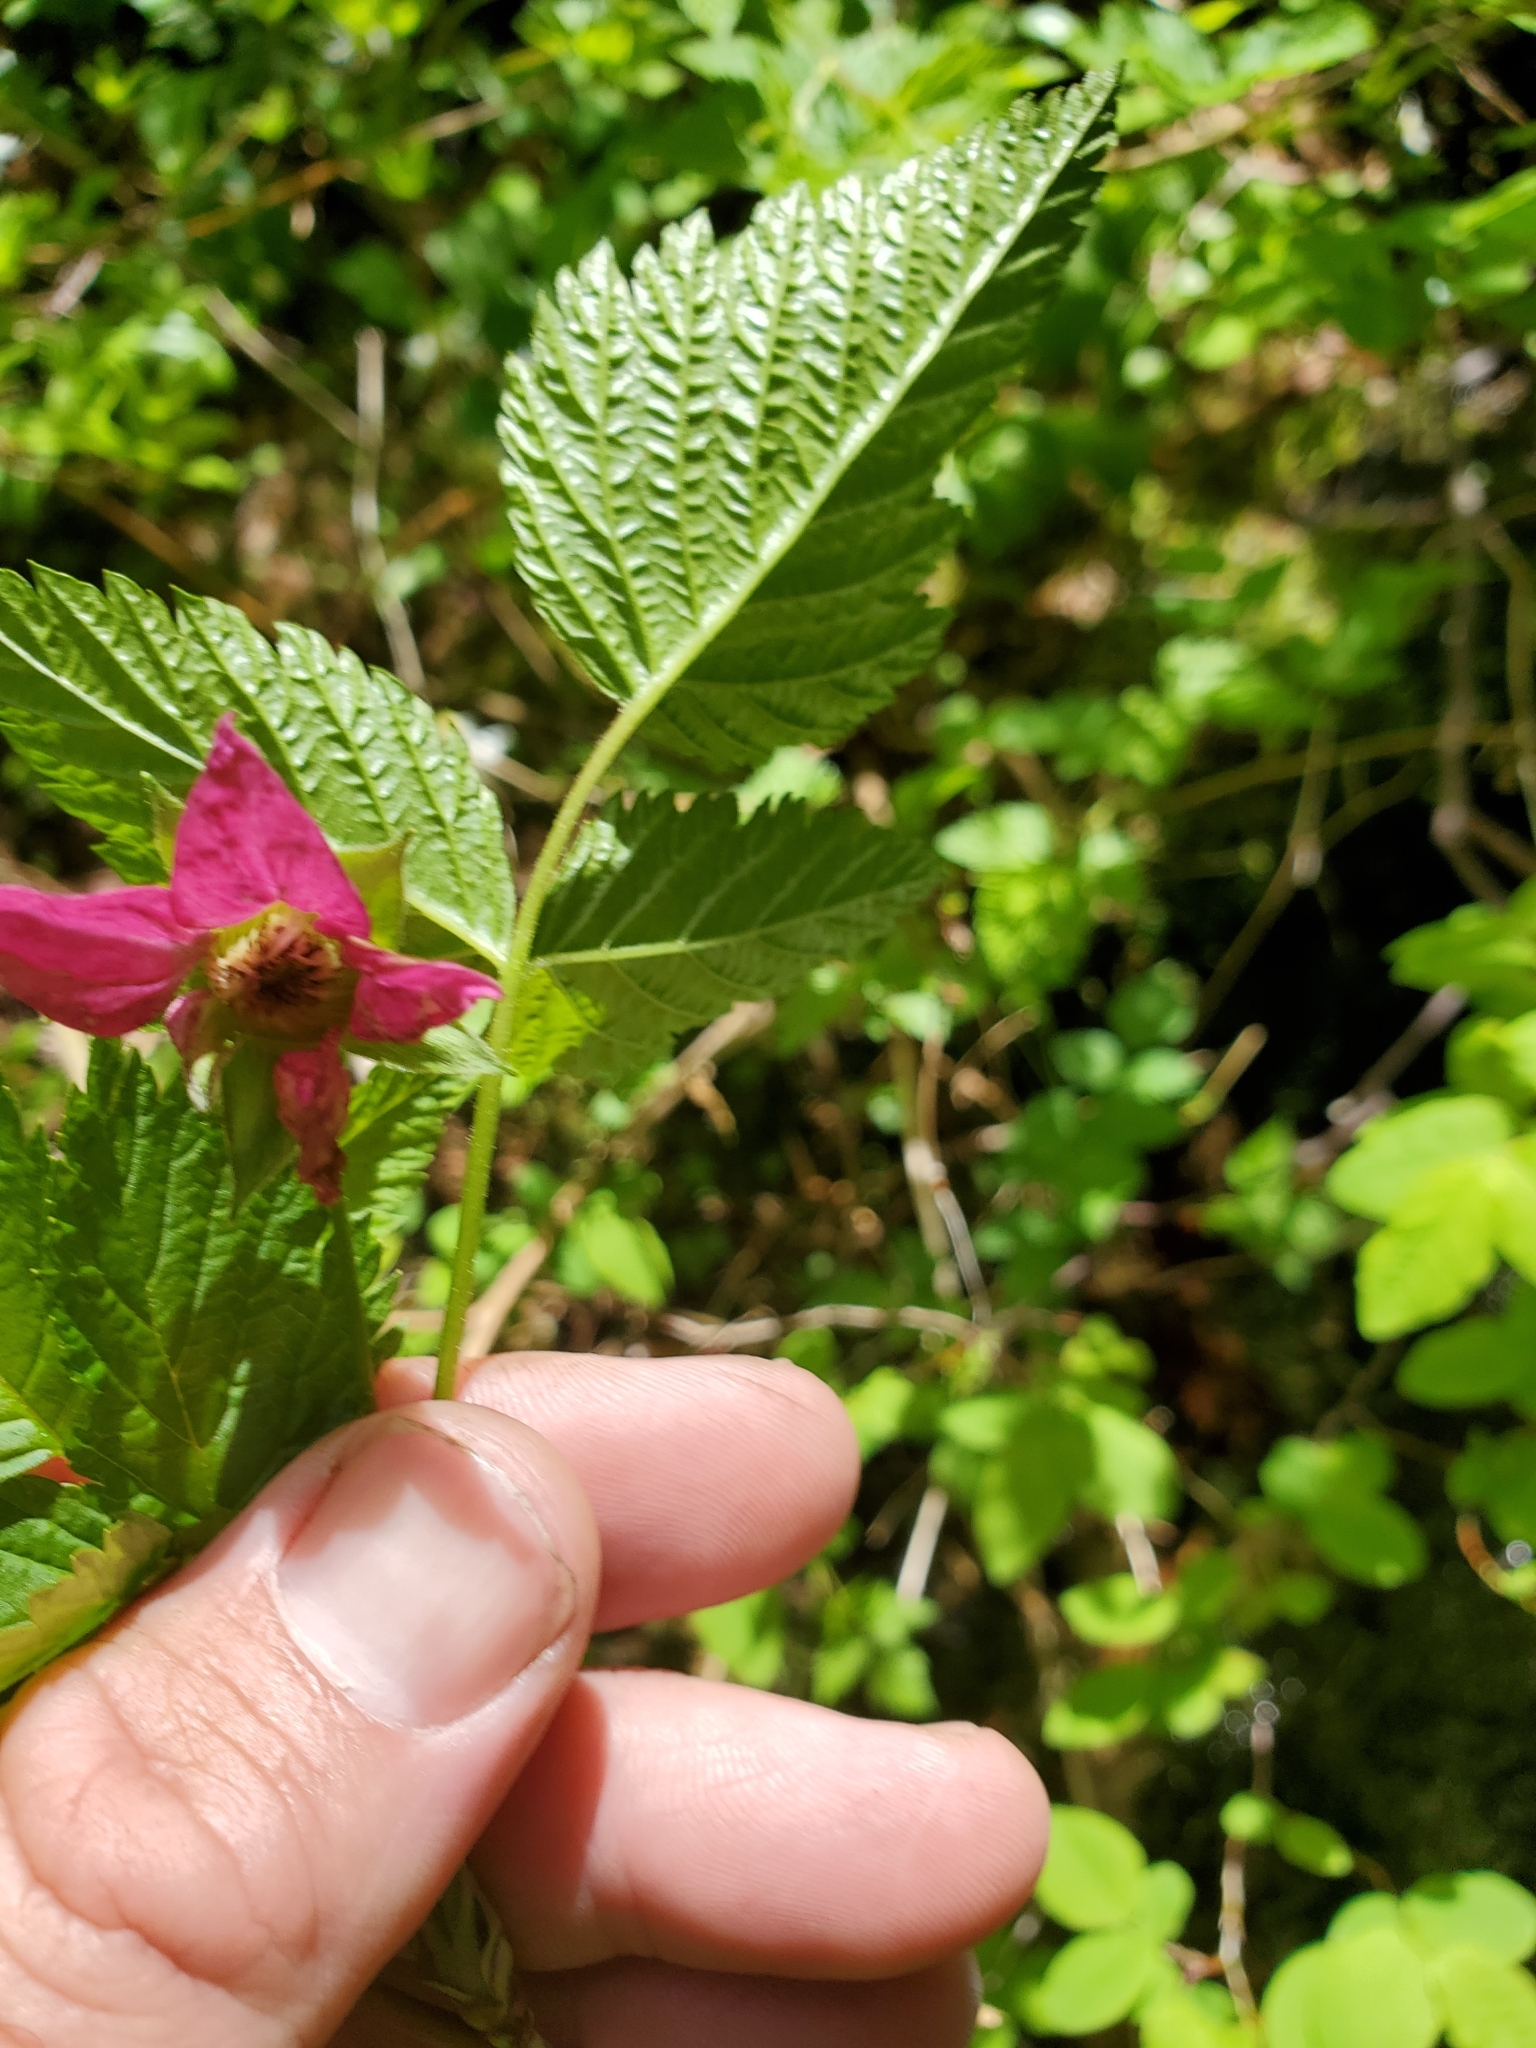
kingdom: Plantae
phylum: Tracheophyta
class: Magnoliopsida
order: Rosales
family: Rosaceae
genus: Rubus
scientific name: Rubus spectabilis
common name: Salmonberry
